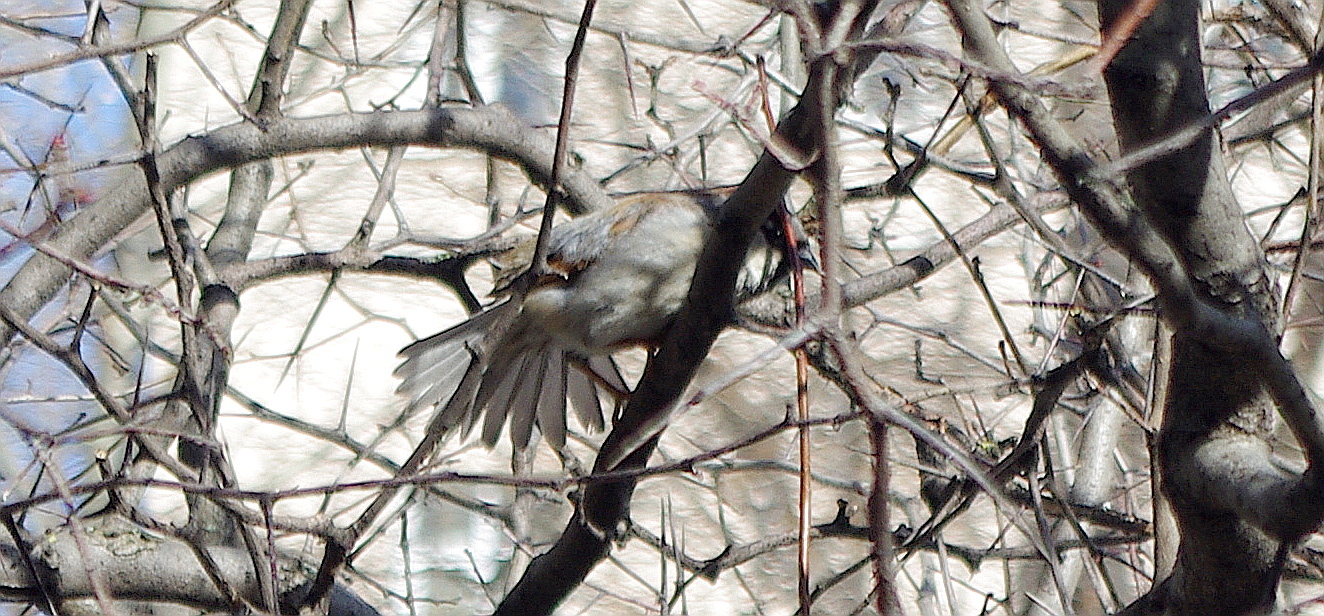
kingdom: Animalia
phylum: Chordata
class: Aves
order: Passeriformes
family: Passeridae
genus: Passer
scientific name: Passer domesticus
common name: House sparrow
